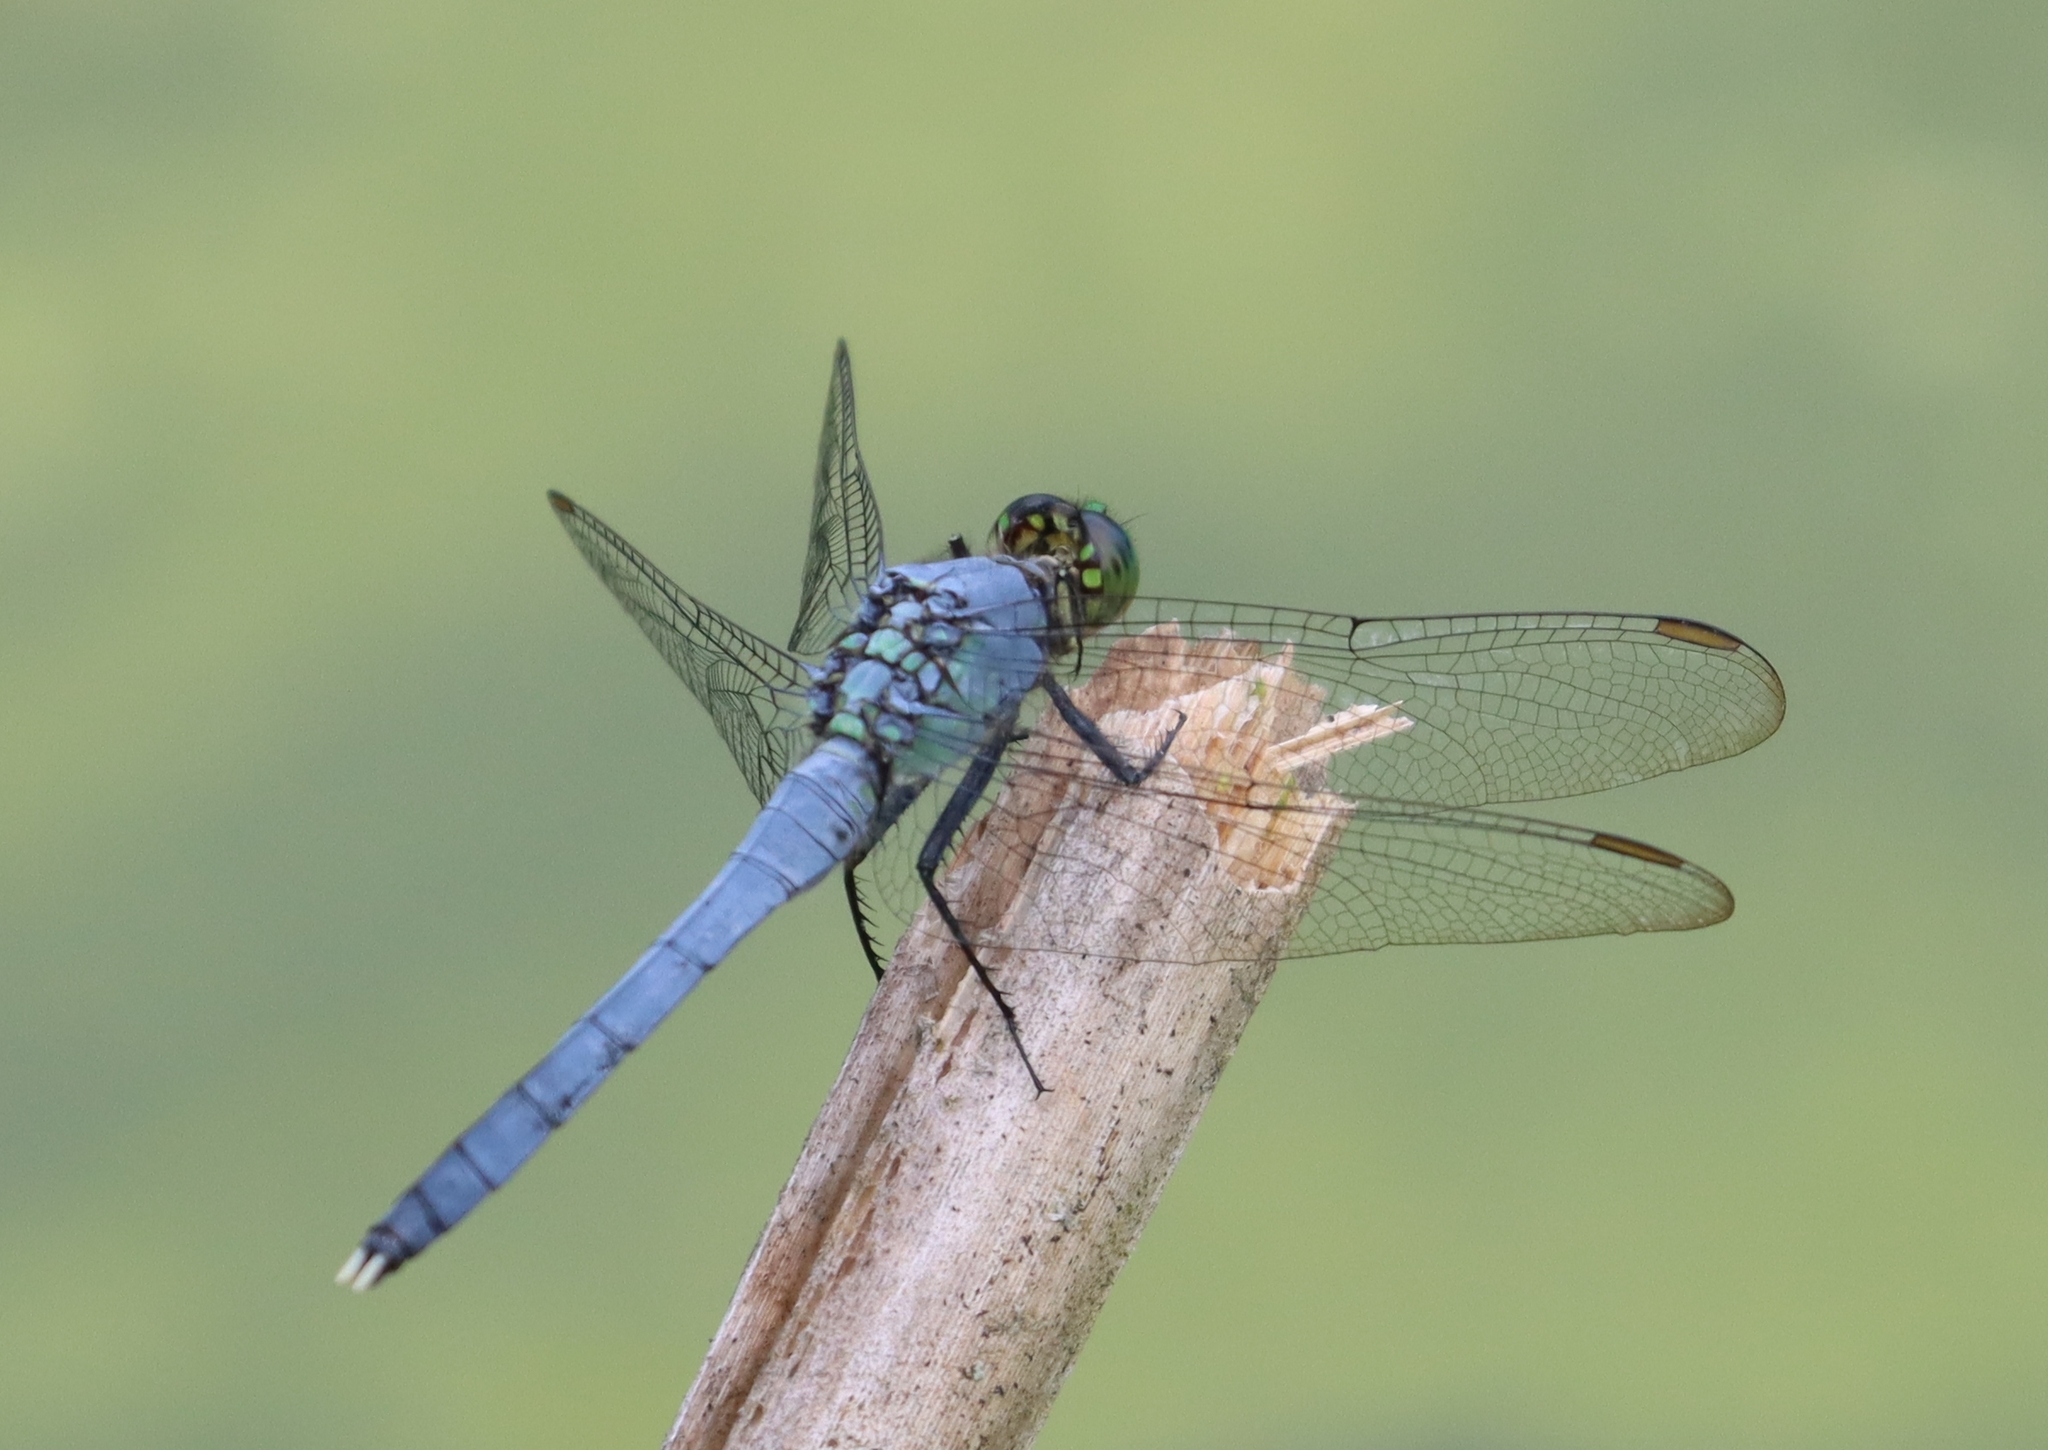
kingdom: Animalia
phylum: Arthropoda
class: Insecta
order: Odonata
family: Libellulidae
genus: Erythemis
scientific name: Erythemis simplicicollis
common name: Eastern pondhawk
